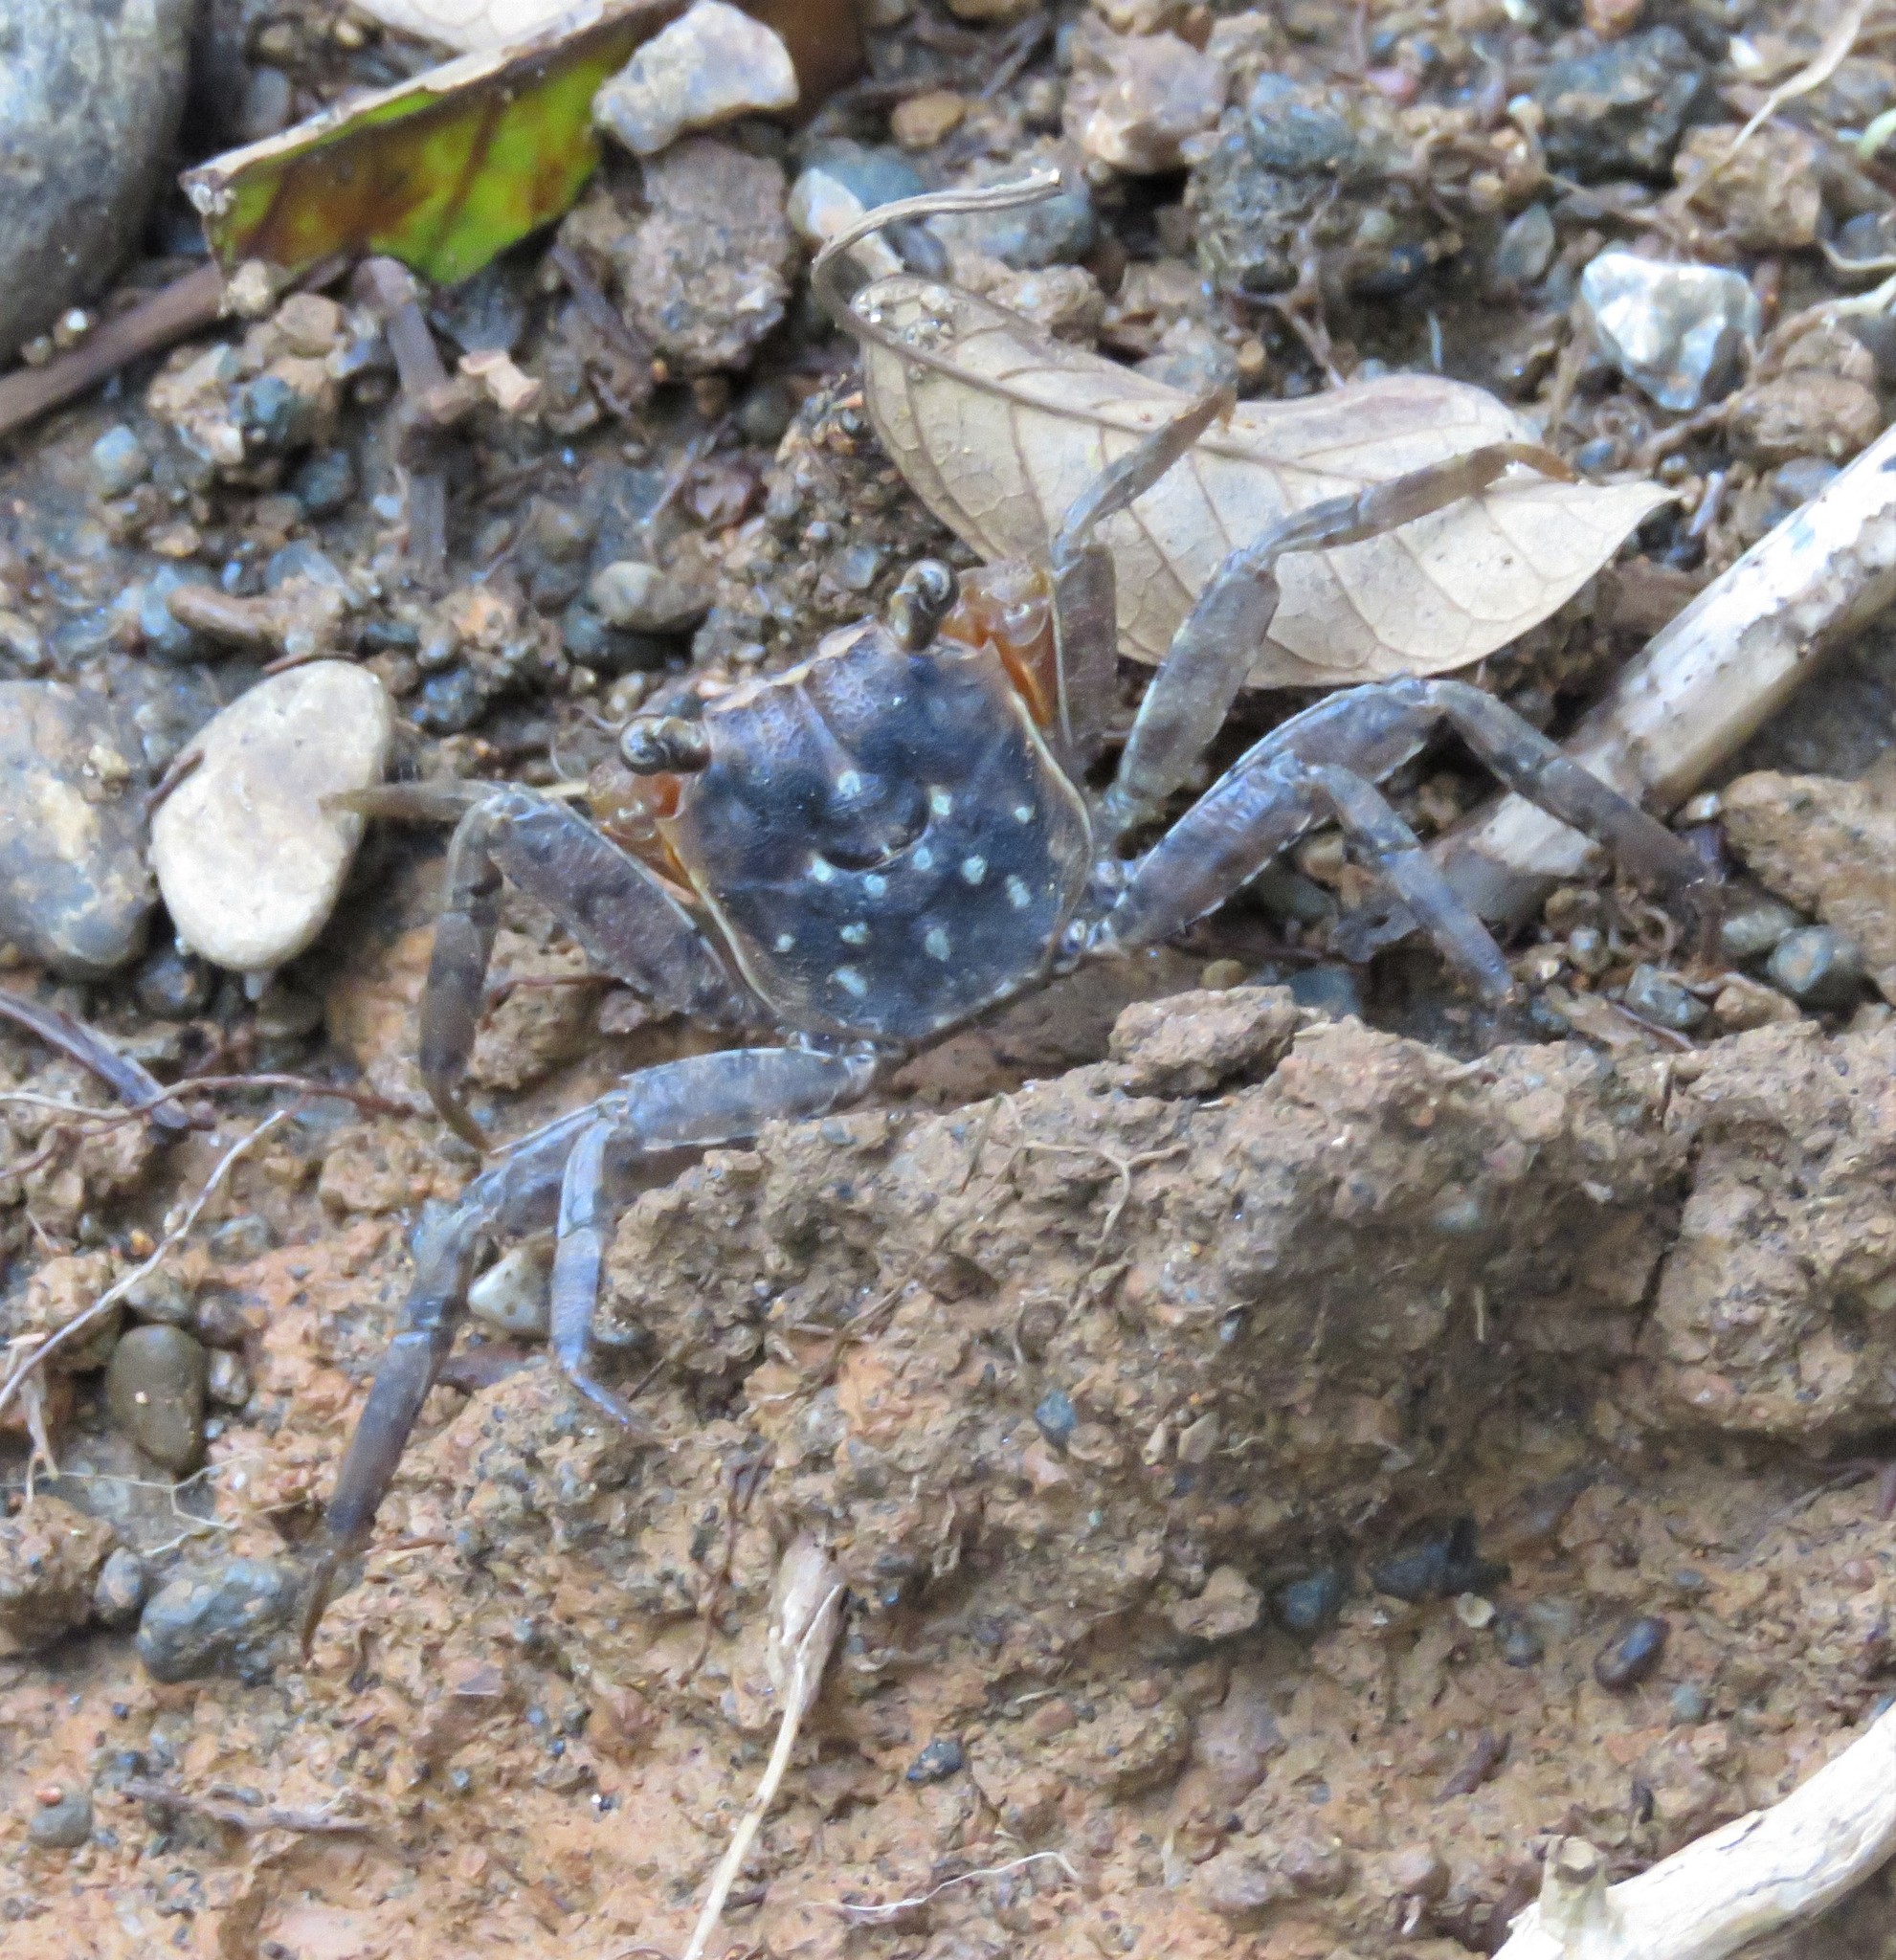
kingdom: Animalia
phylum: Arthropoda
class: Malacostraca
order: Decapoda
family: Sesarmidae
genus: Armases
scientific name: Armases angustum
